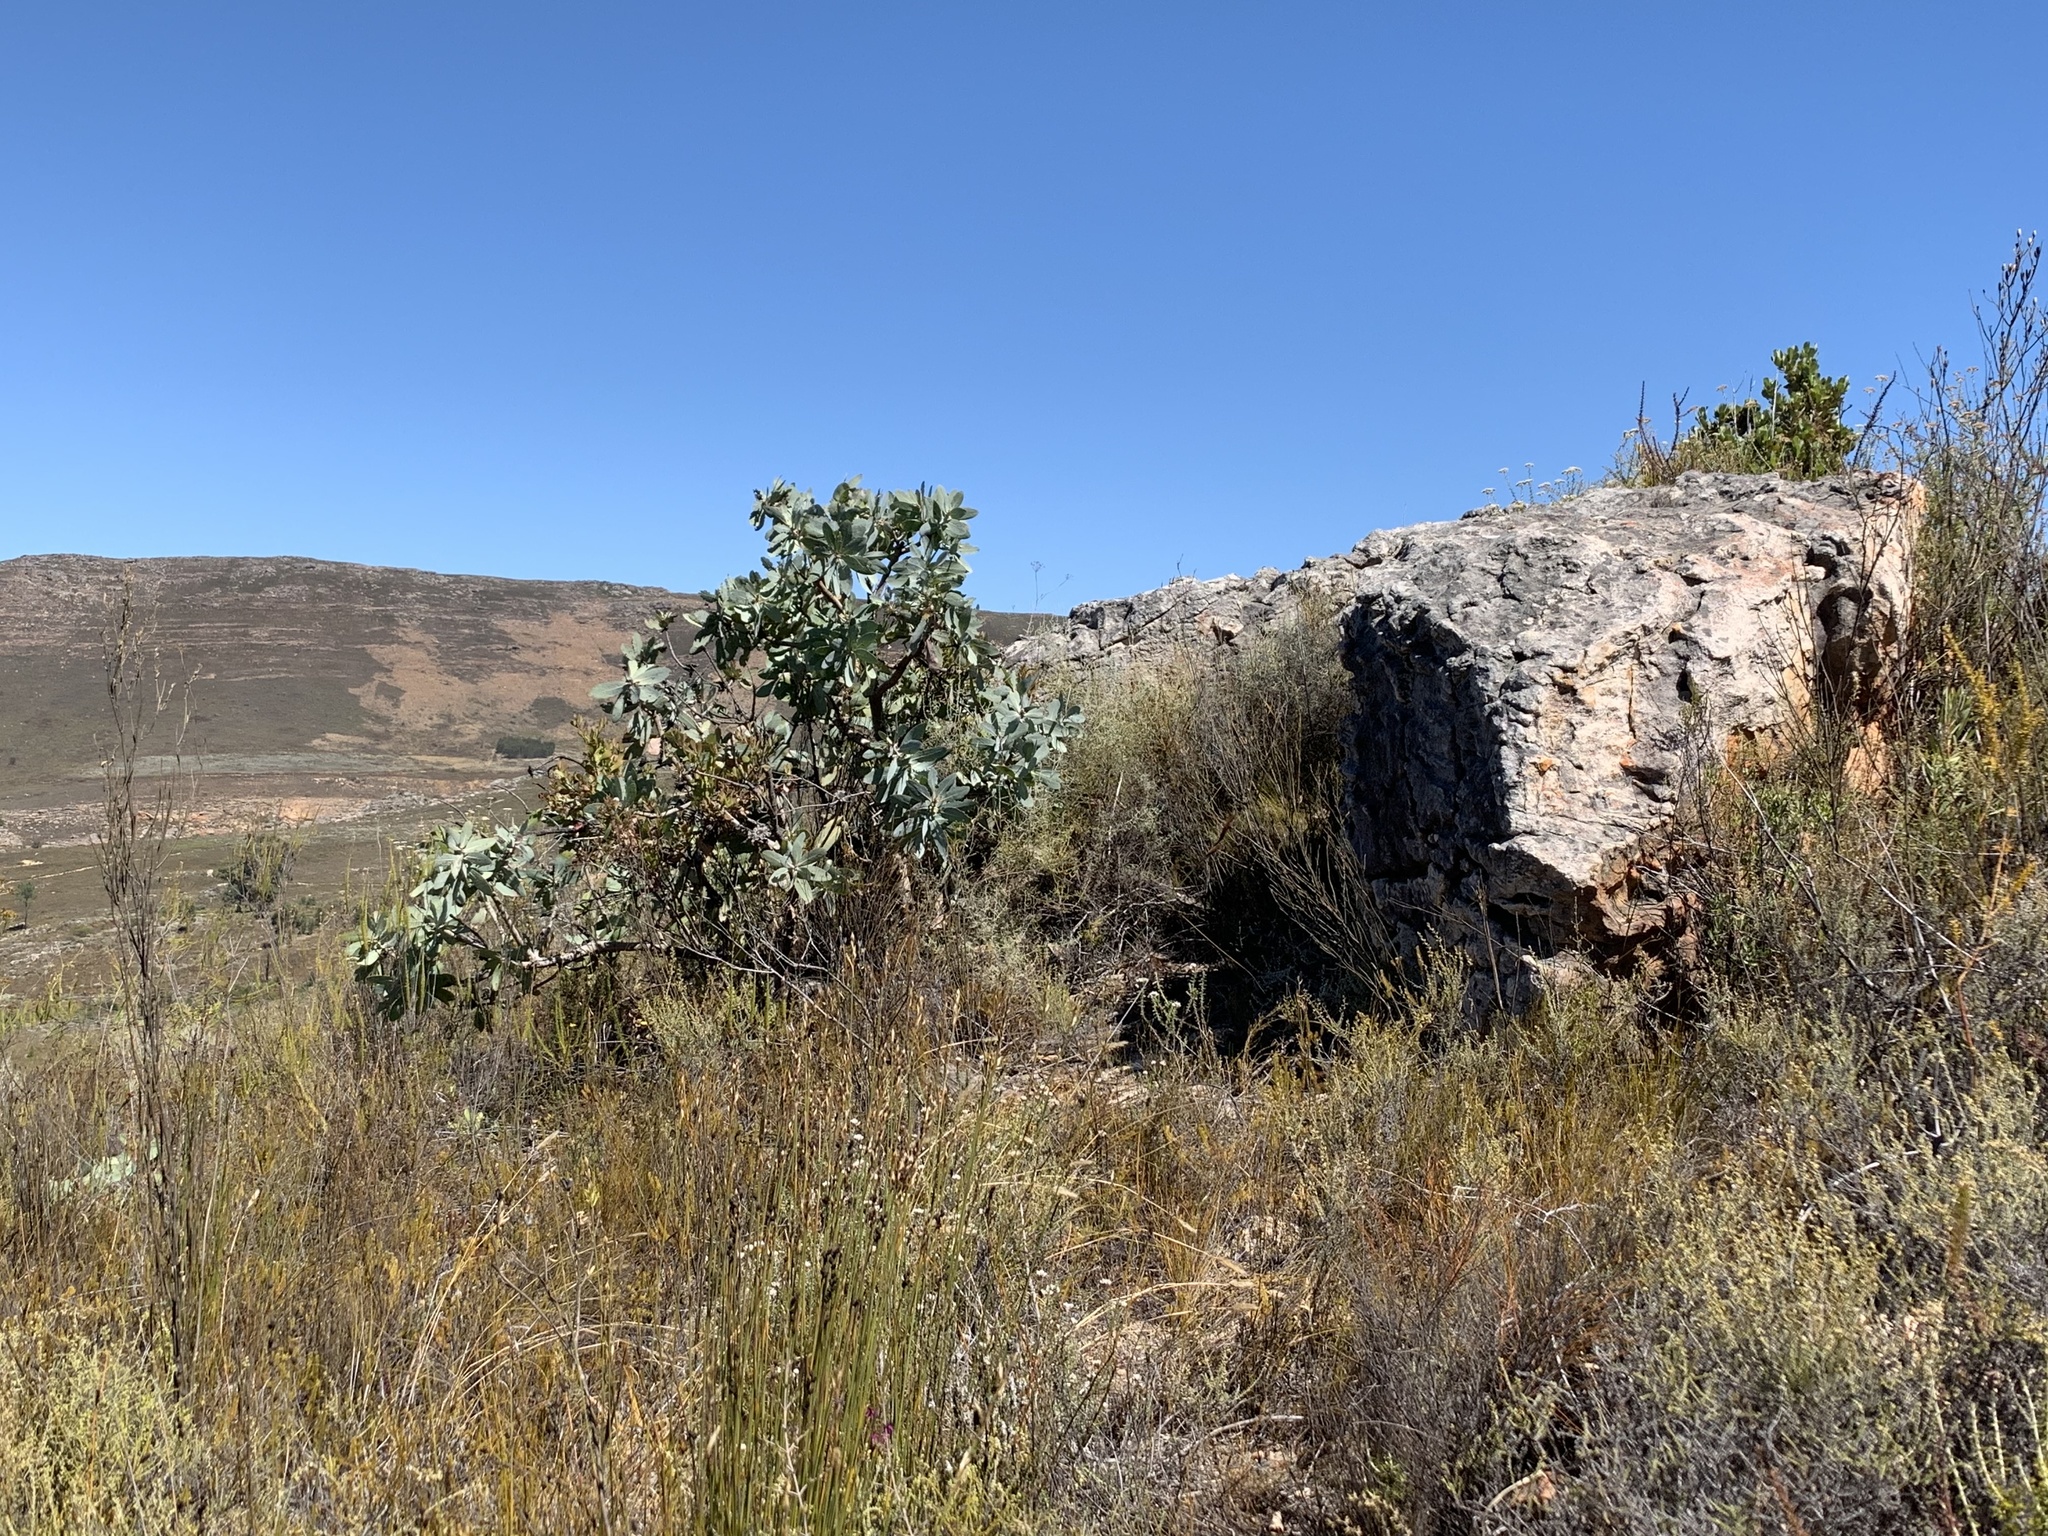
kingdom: Plantae
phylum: Tracheophyta
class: Magnoliopsida
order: Proteales
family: Proteaceae
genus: Protea
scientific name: Protea nitida
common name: Tree protea
